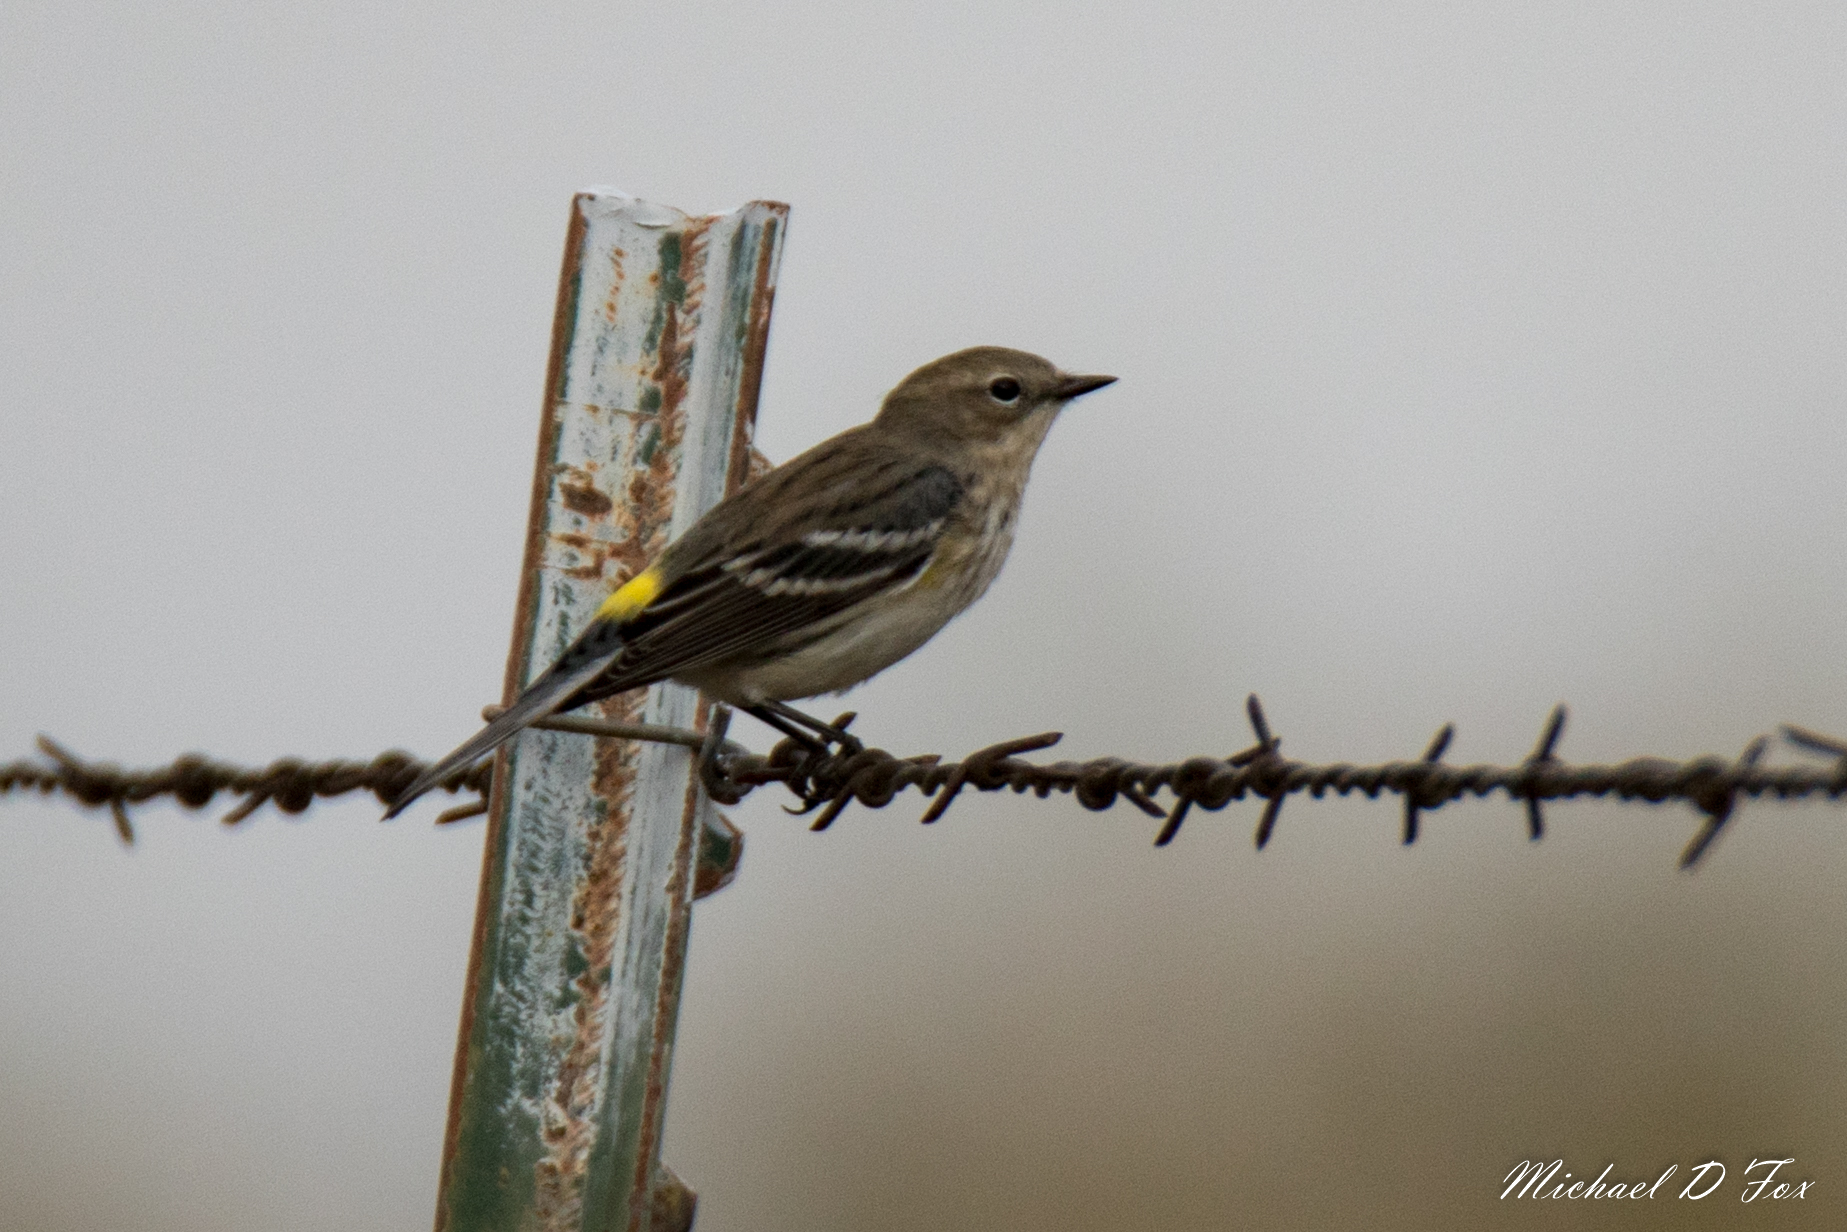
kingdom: Animalia
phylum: Chordata
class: Aves
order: Passeriformes
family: Parulidae
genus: Setophaga
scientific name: Setophaga coronata
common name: Myrtle warbler
